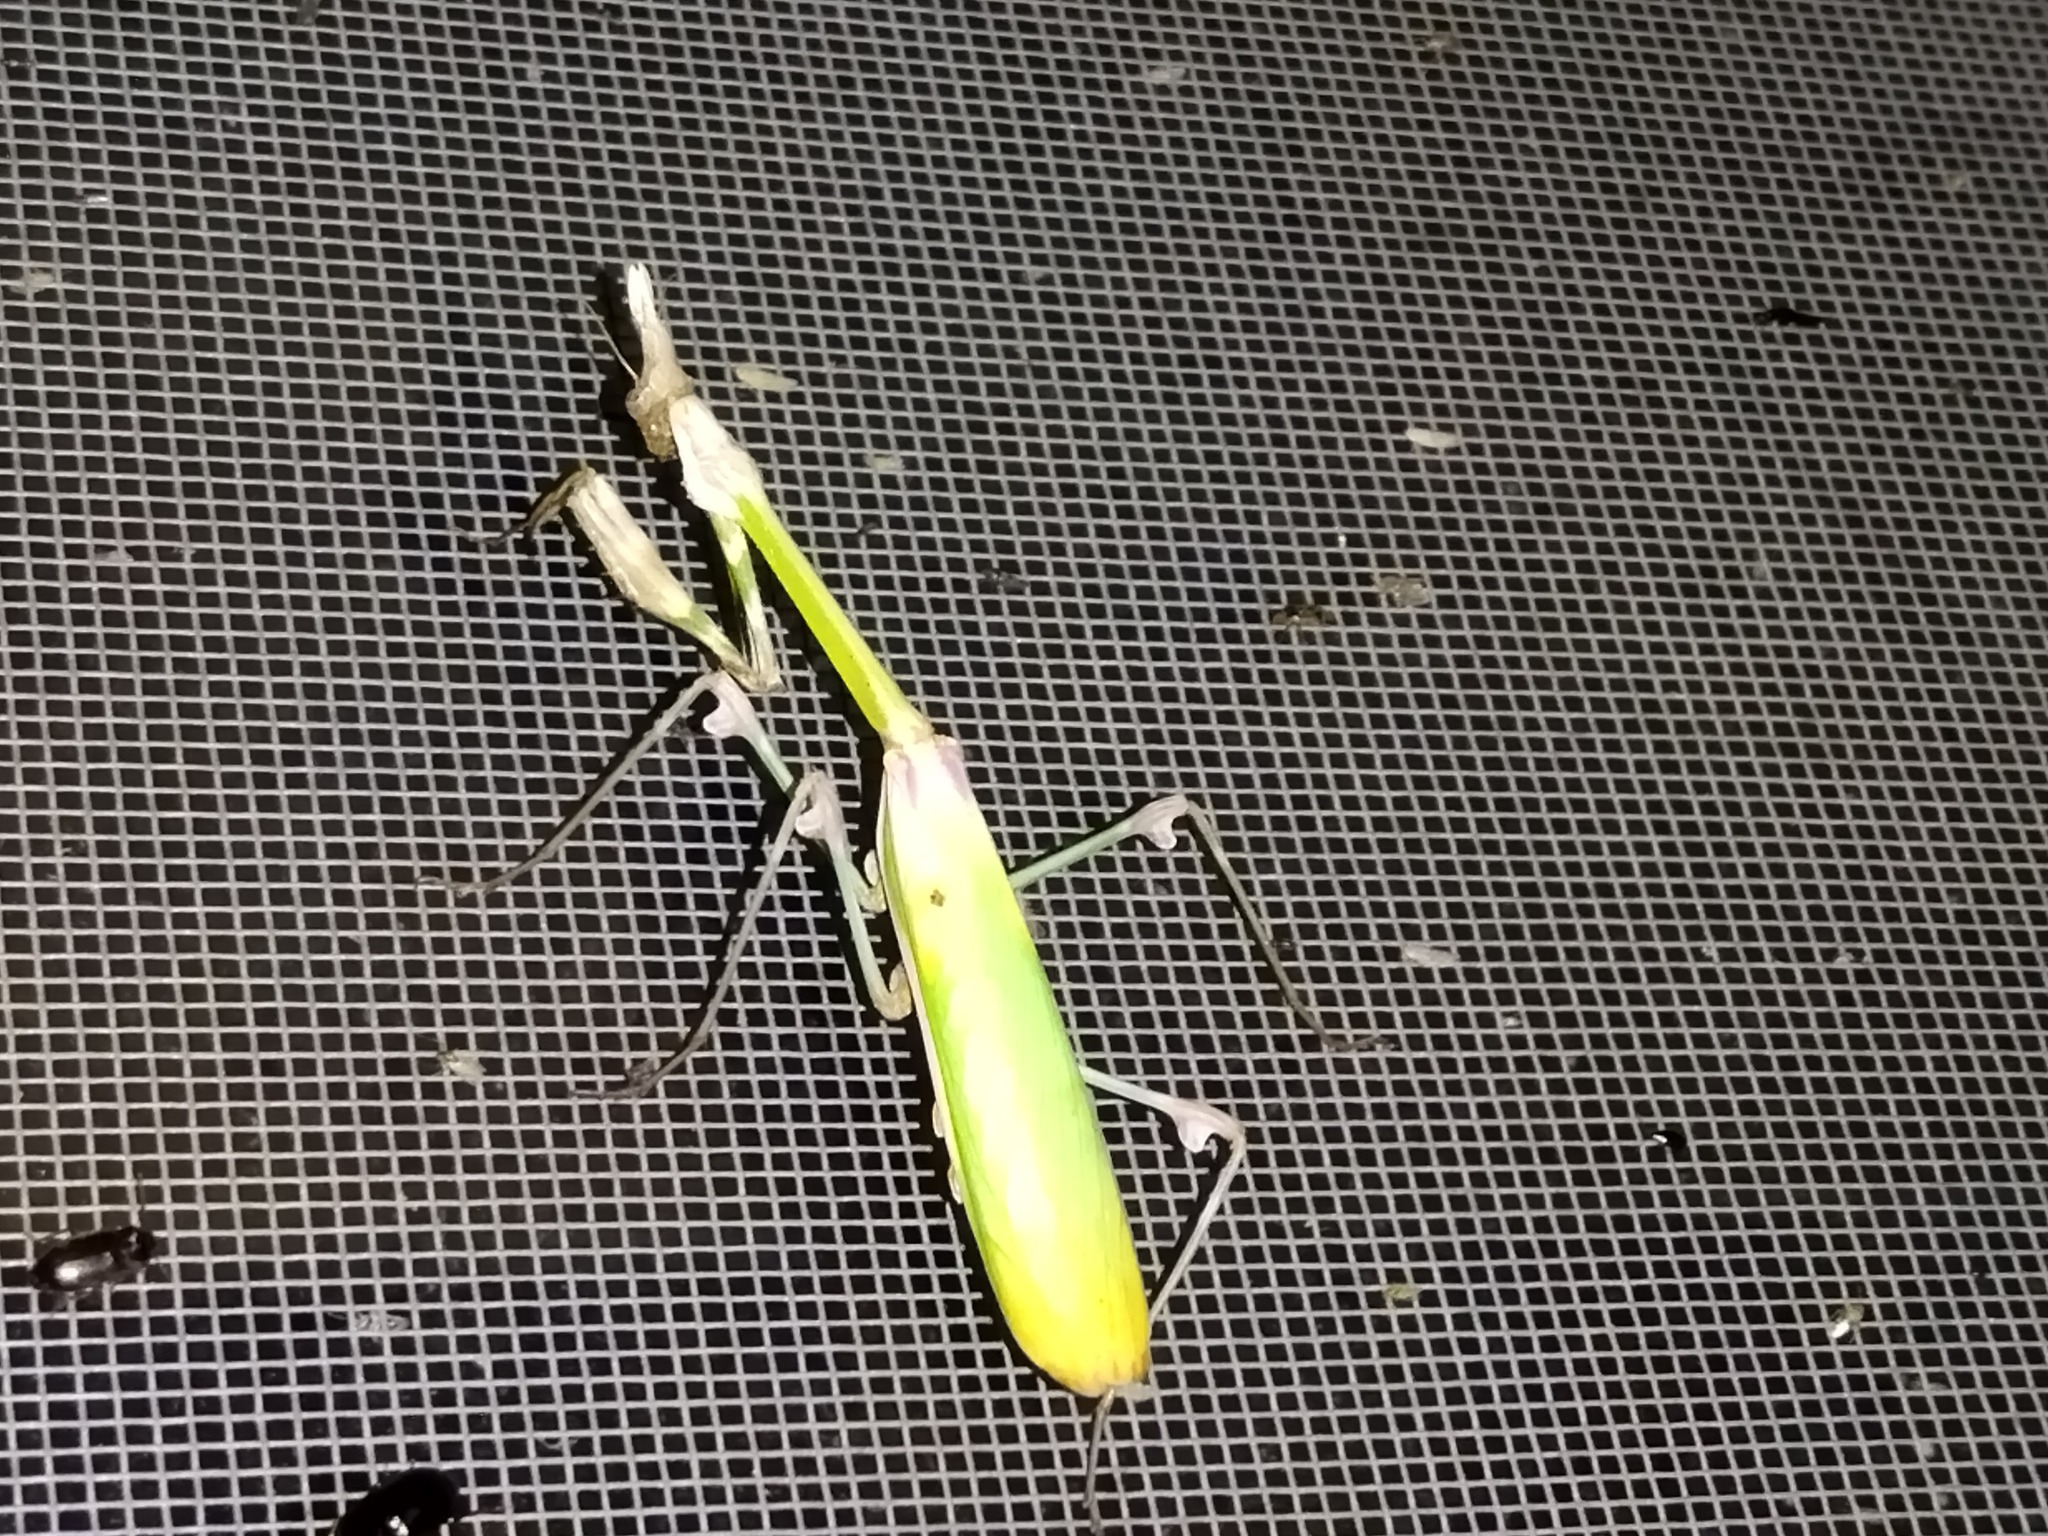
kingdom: Animalia
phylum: Arthropoda
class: Insecta
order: Mantodea
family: Empusidae
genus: Empusa
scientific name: Empusa fasciata
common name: Devil's mare
